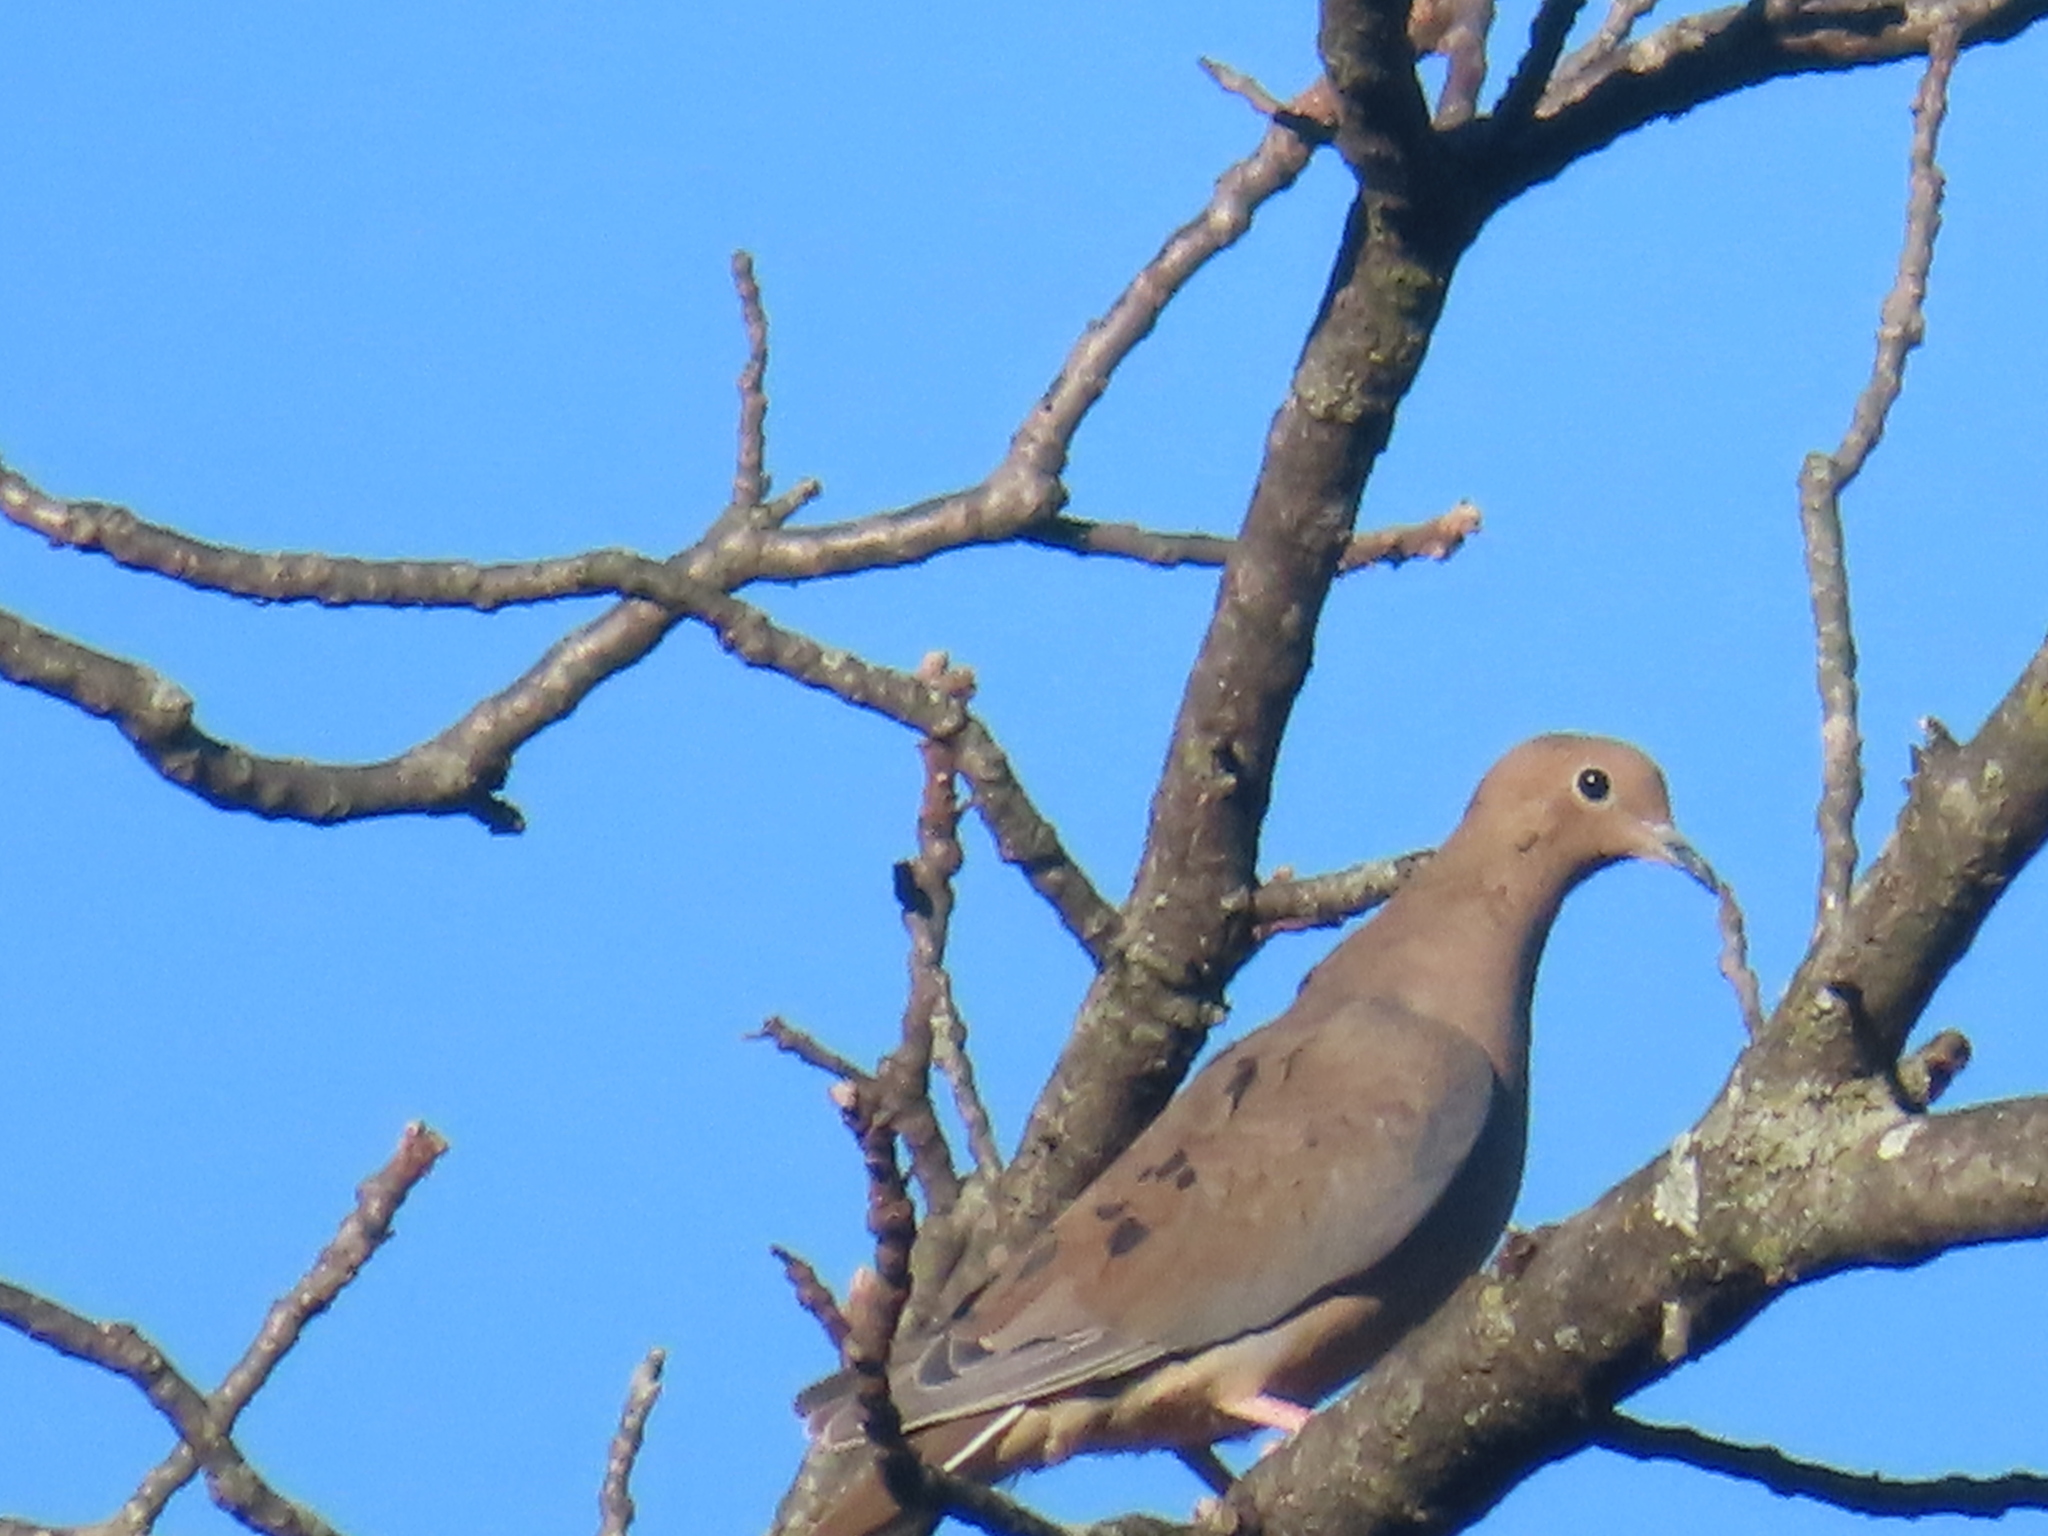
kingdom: Animalia
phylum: Chordata
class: Aves
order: Columbiformes
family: Columbidae
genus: Zenaida
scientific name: Zenaida macroura
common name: Mourning dove
